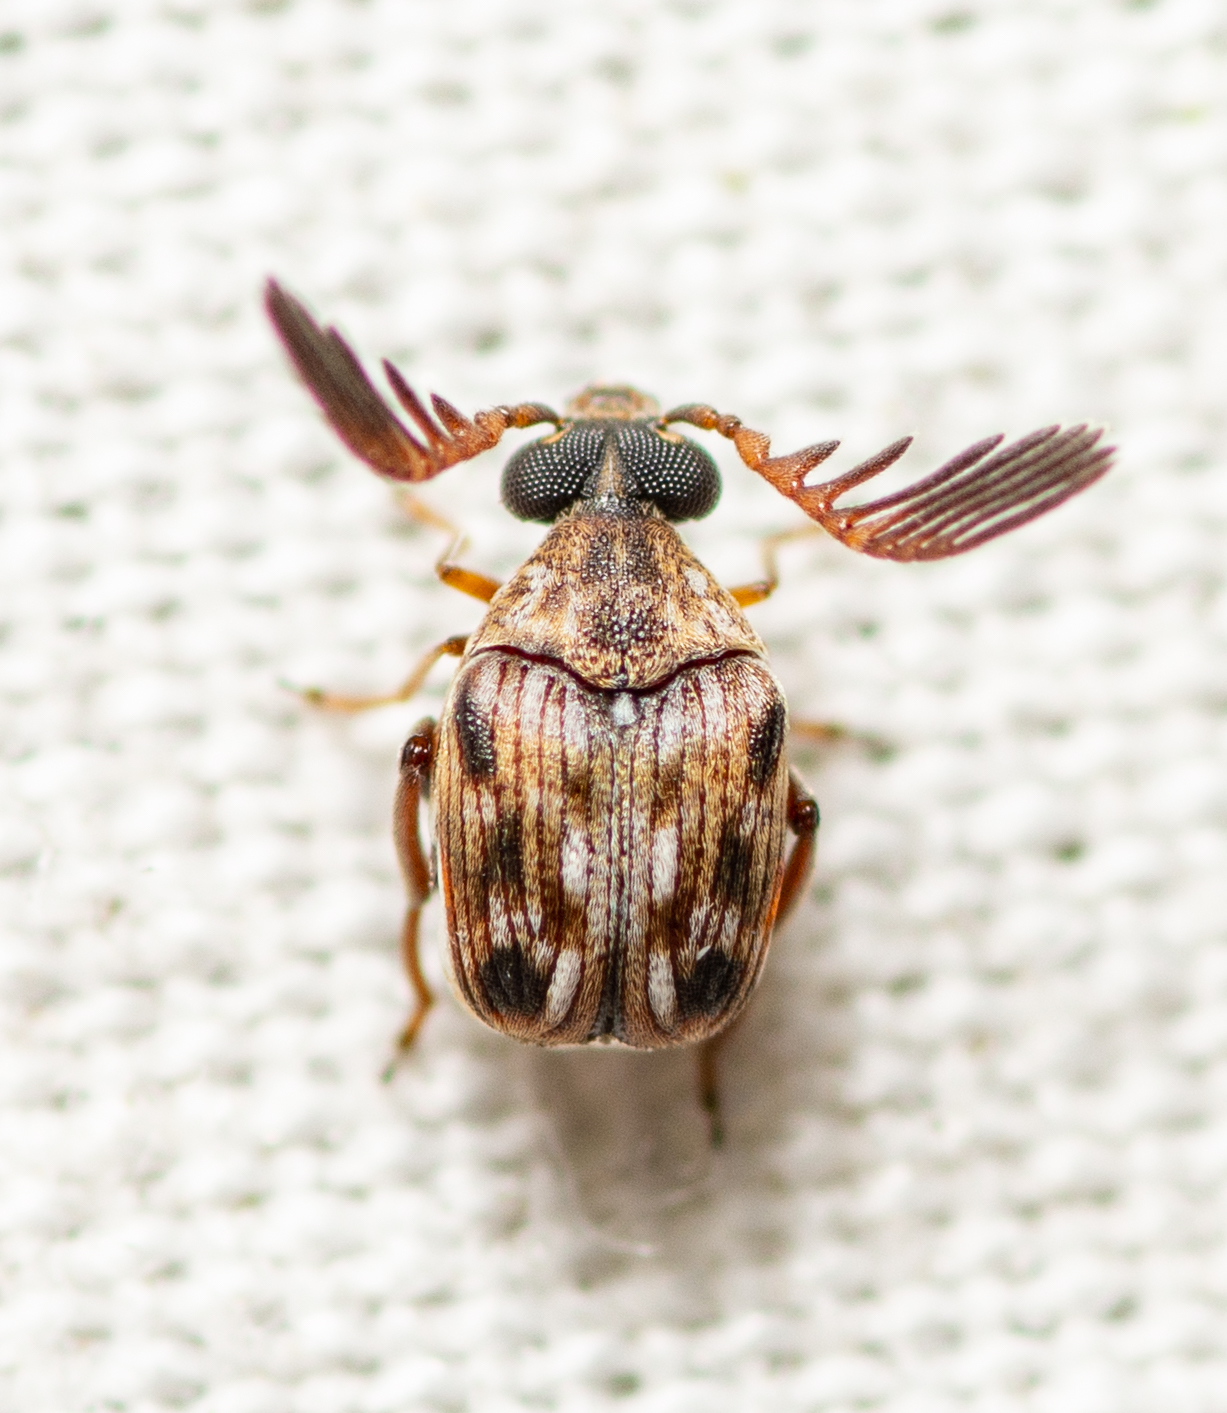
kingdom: Animalia
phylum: Arthropoda
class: Insecta
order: Coleoptera
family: Chrysomelidae
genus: Megacerus
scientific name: Megacerus cubiculus
